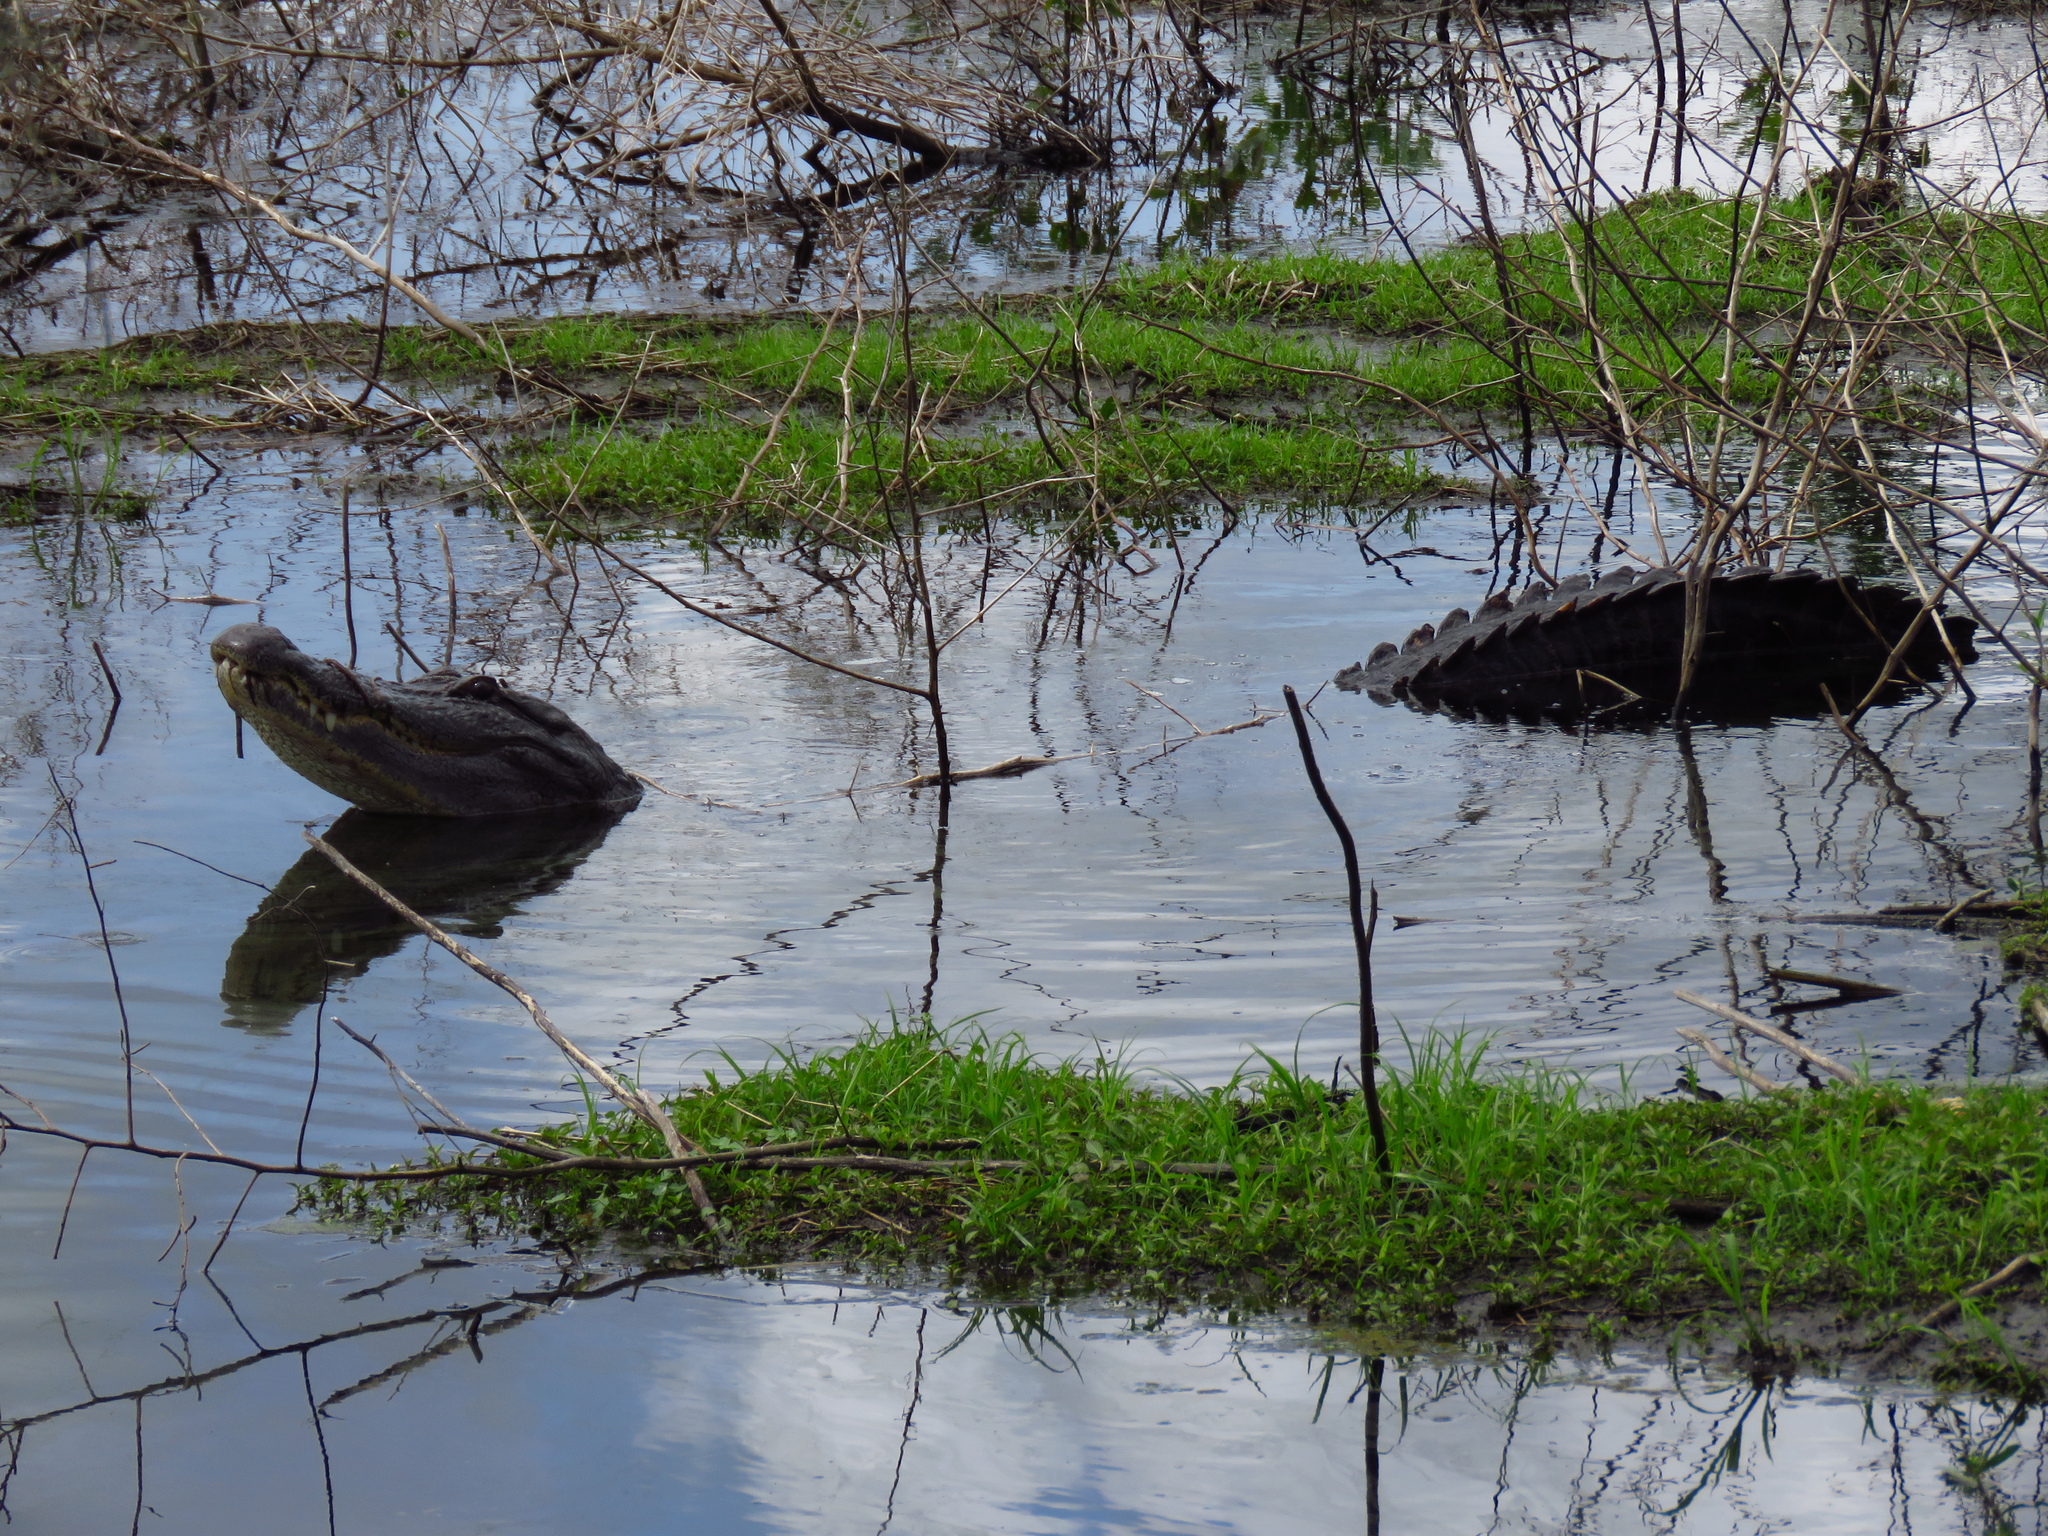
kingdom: Animalia
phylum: Chordata
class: Crocodylia
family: Alligatoridae
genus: Alligator
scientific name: Alligator mississippiensis
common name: American alligator
